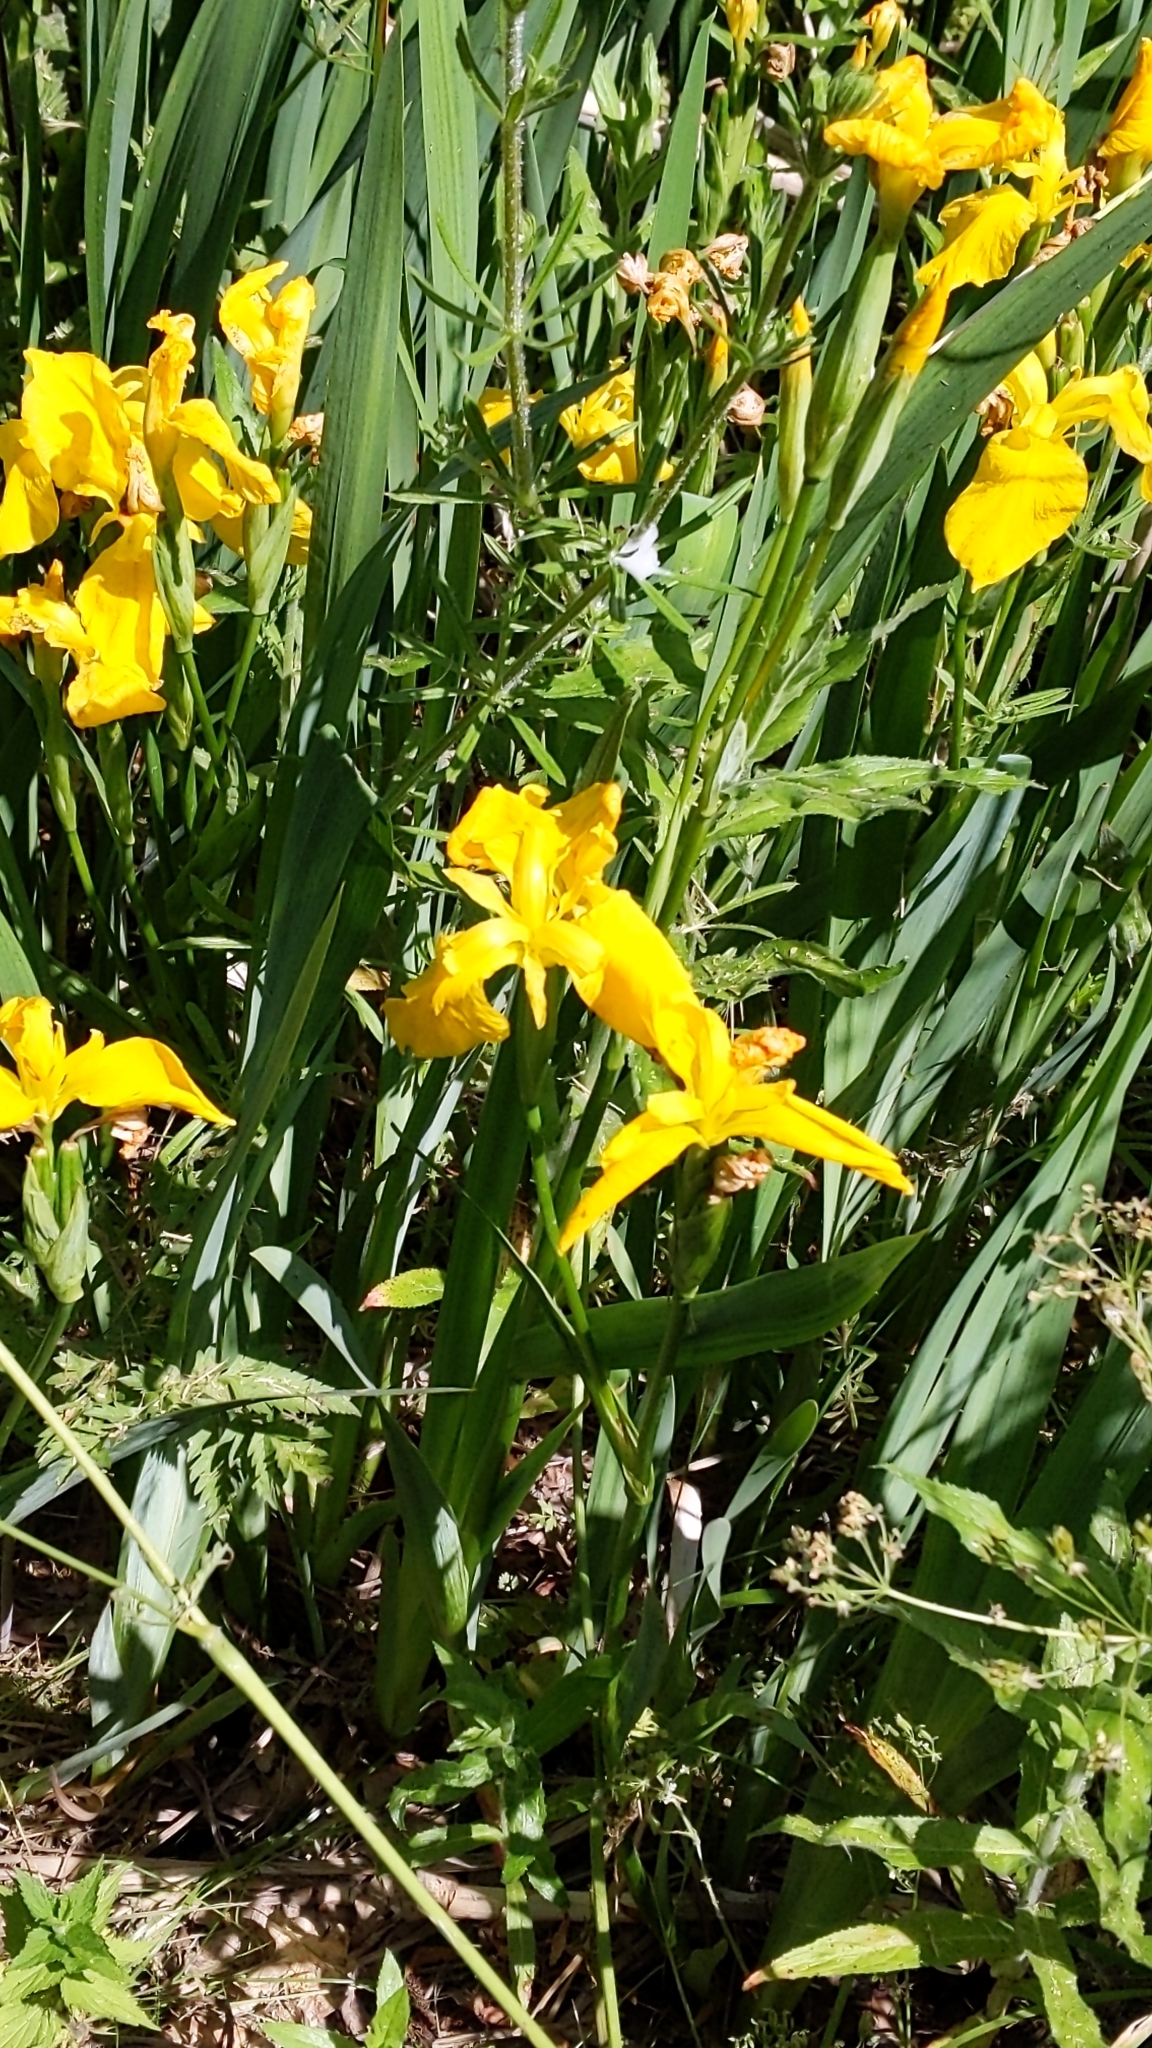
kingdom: Plantae
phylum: Tracheophyta
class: Liliopsida
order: Asparagales
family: Iridaceae
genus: Iris
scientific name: Iris pseudacorus
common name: Yellow flag
